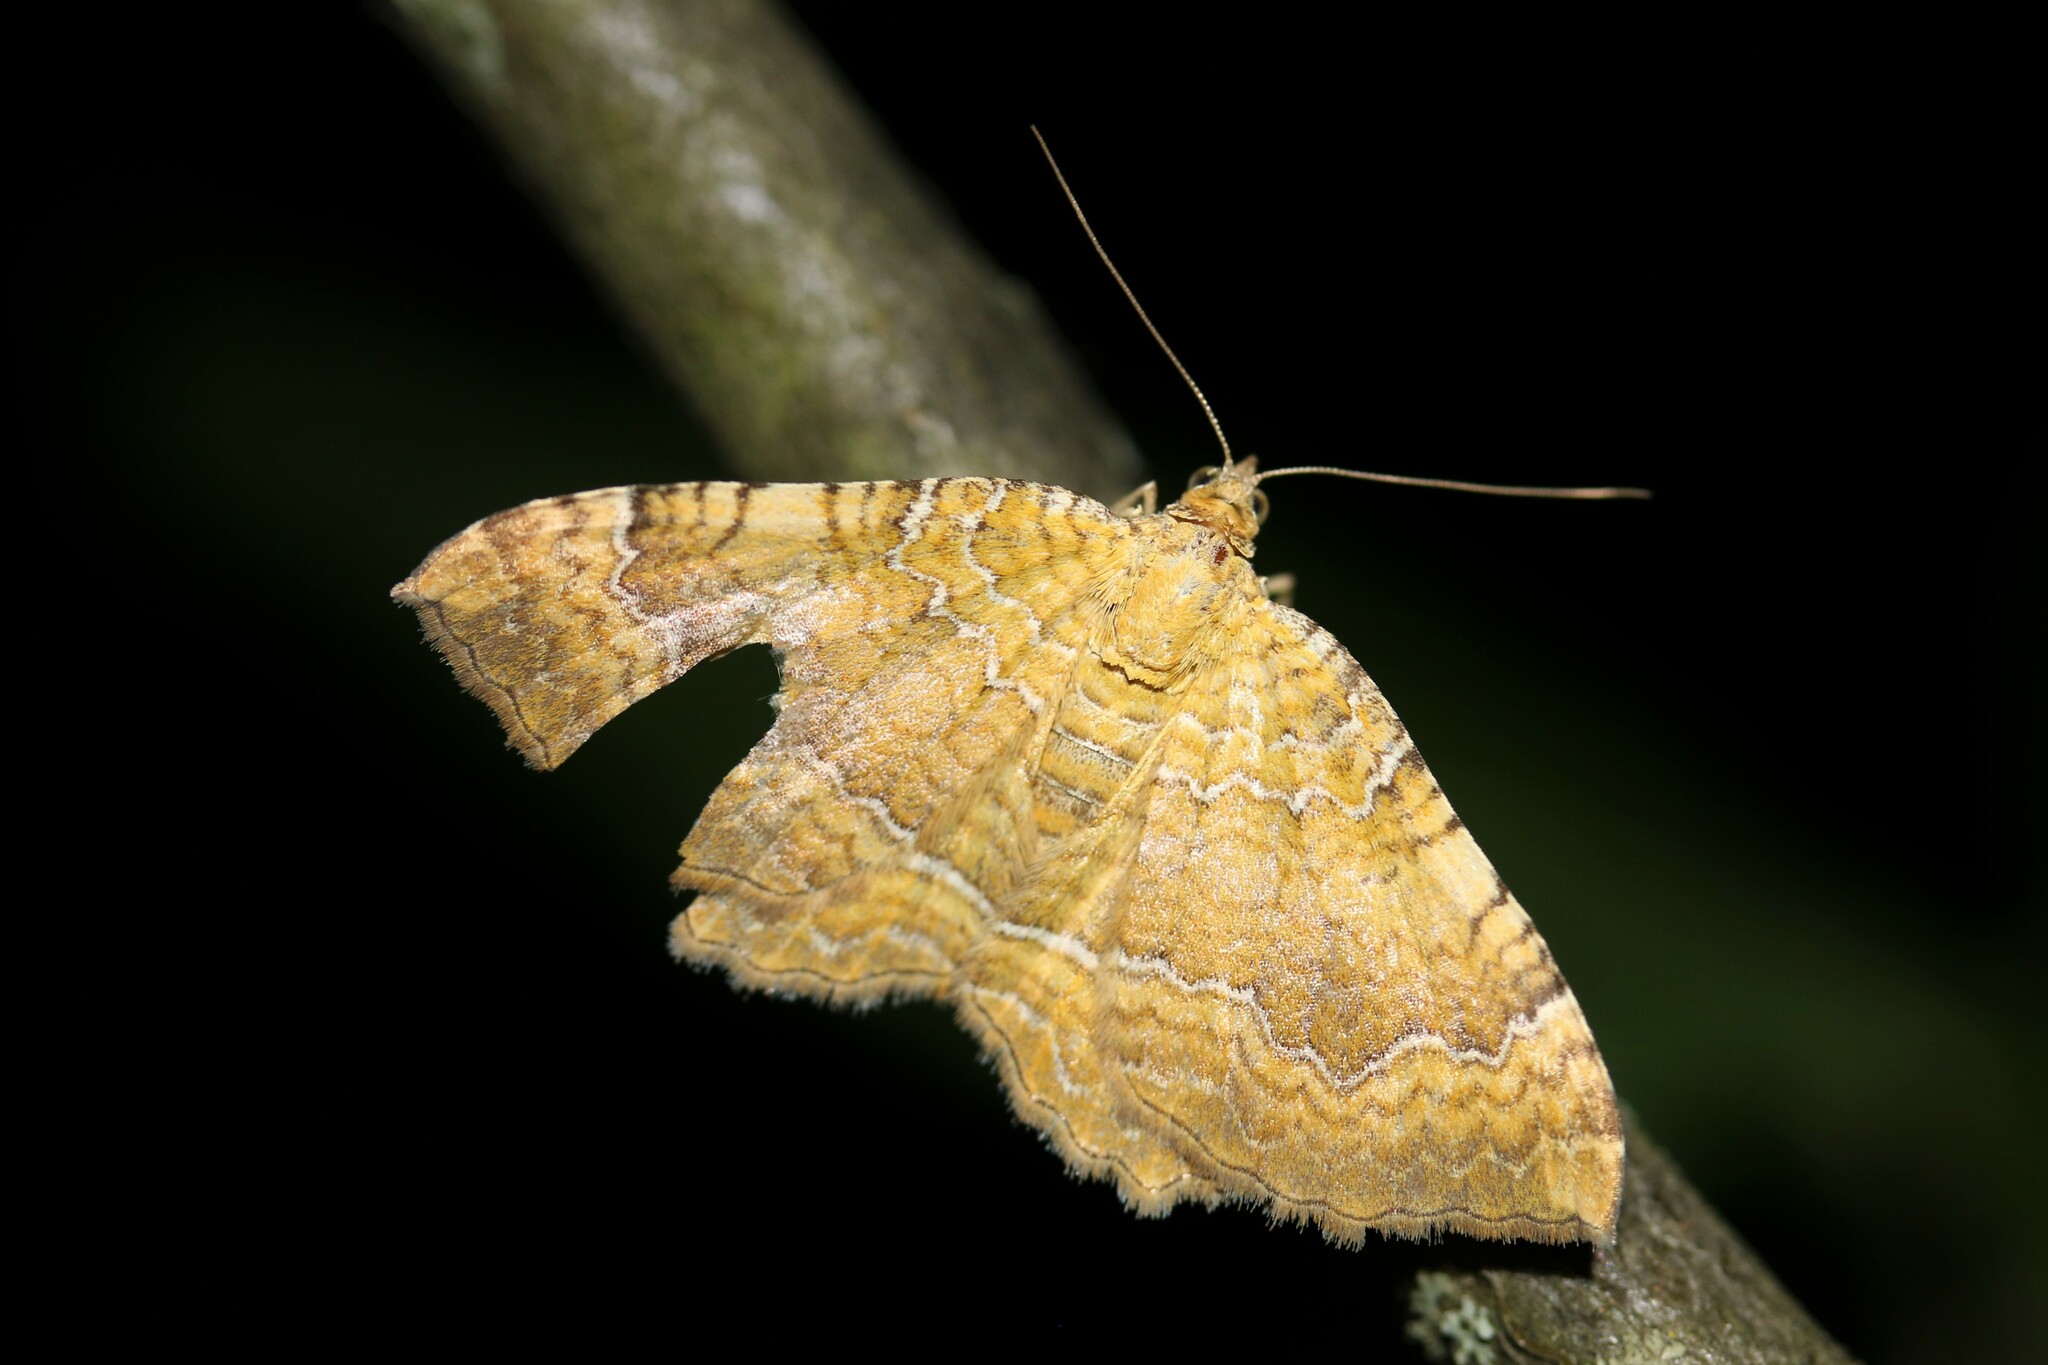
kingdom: Animalia
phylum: Arthropoda
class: Insecta
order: Lepidoptera
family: Geometridae
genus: Camptogramma
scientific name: Camptogramma bilineata
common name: Yellow shell
